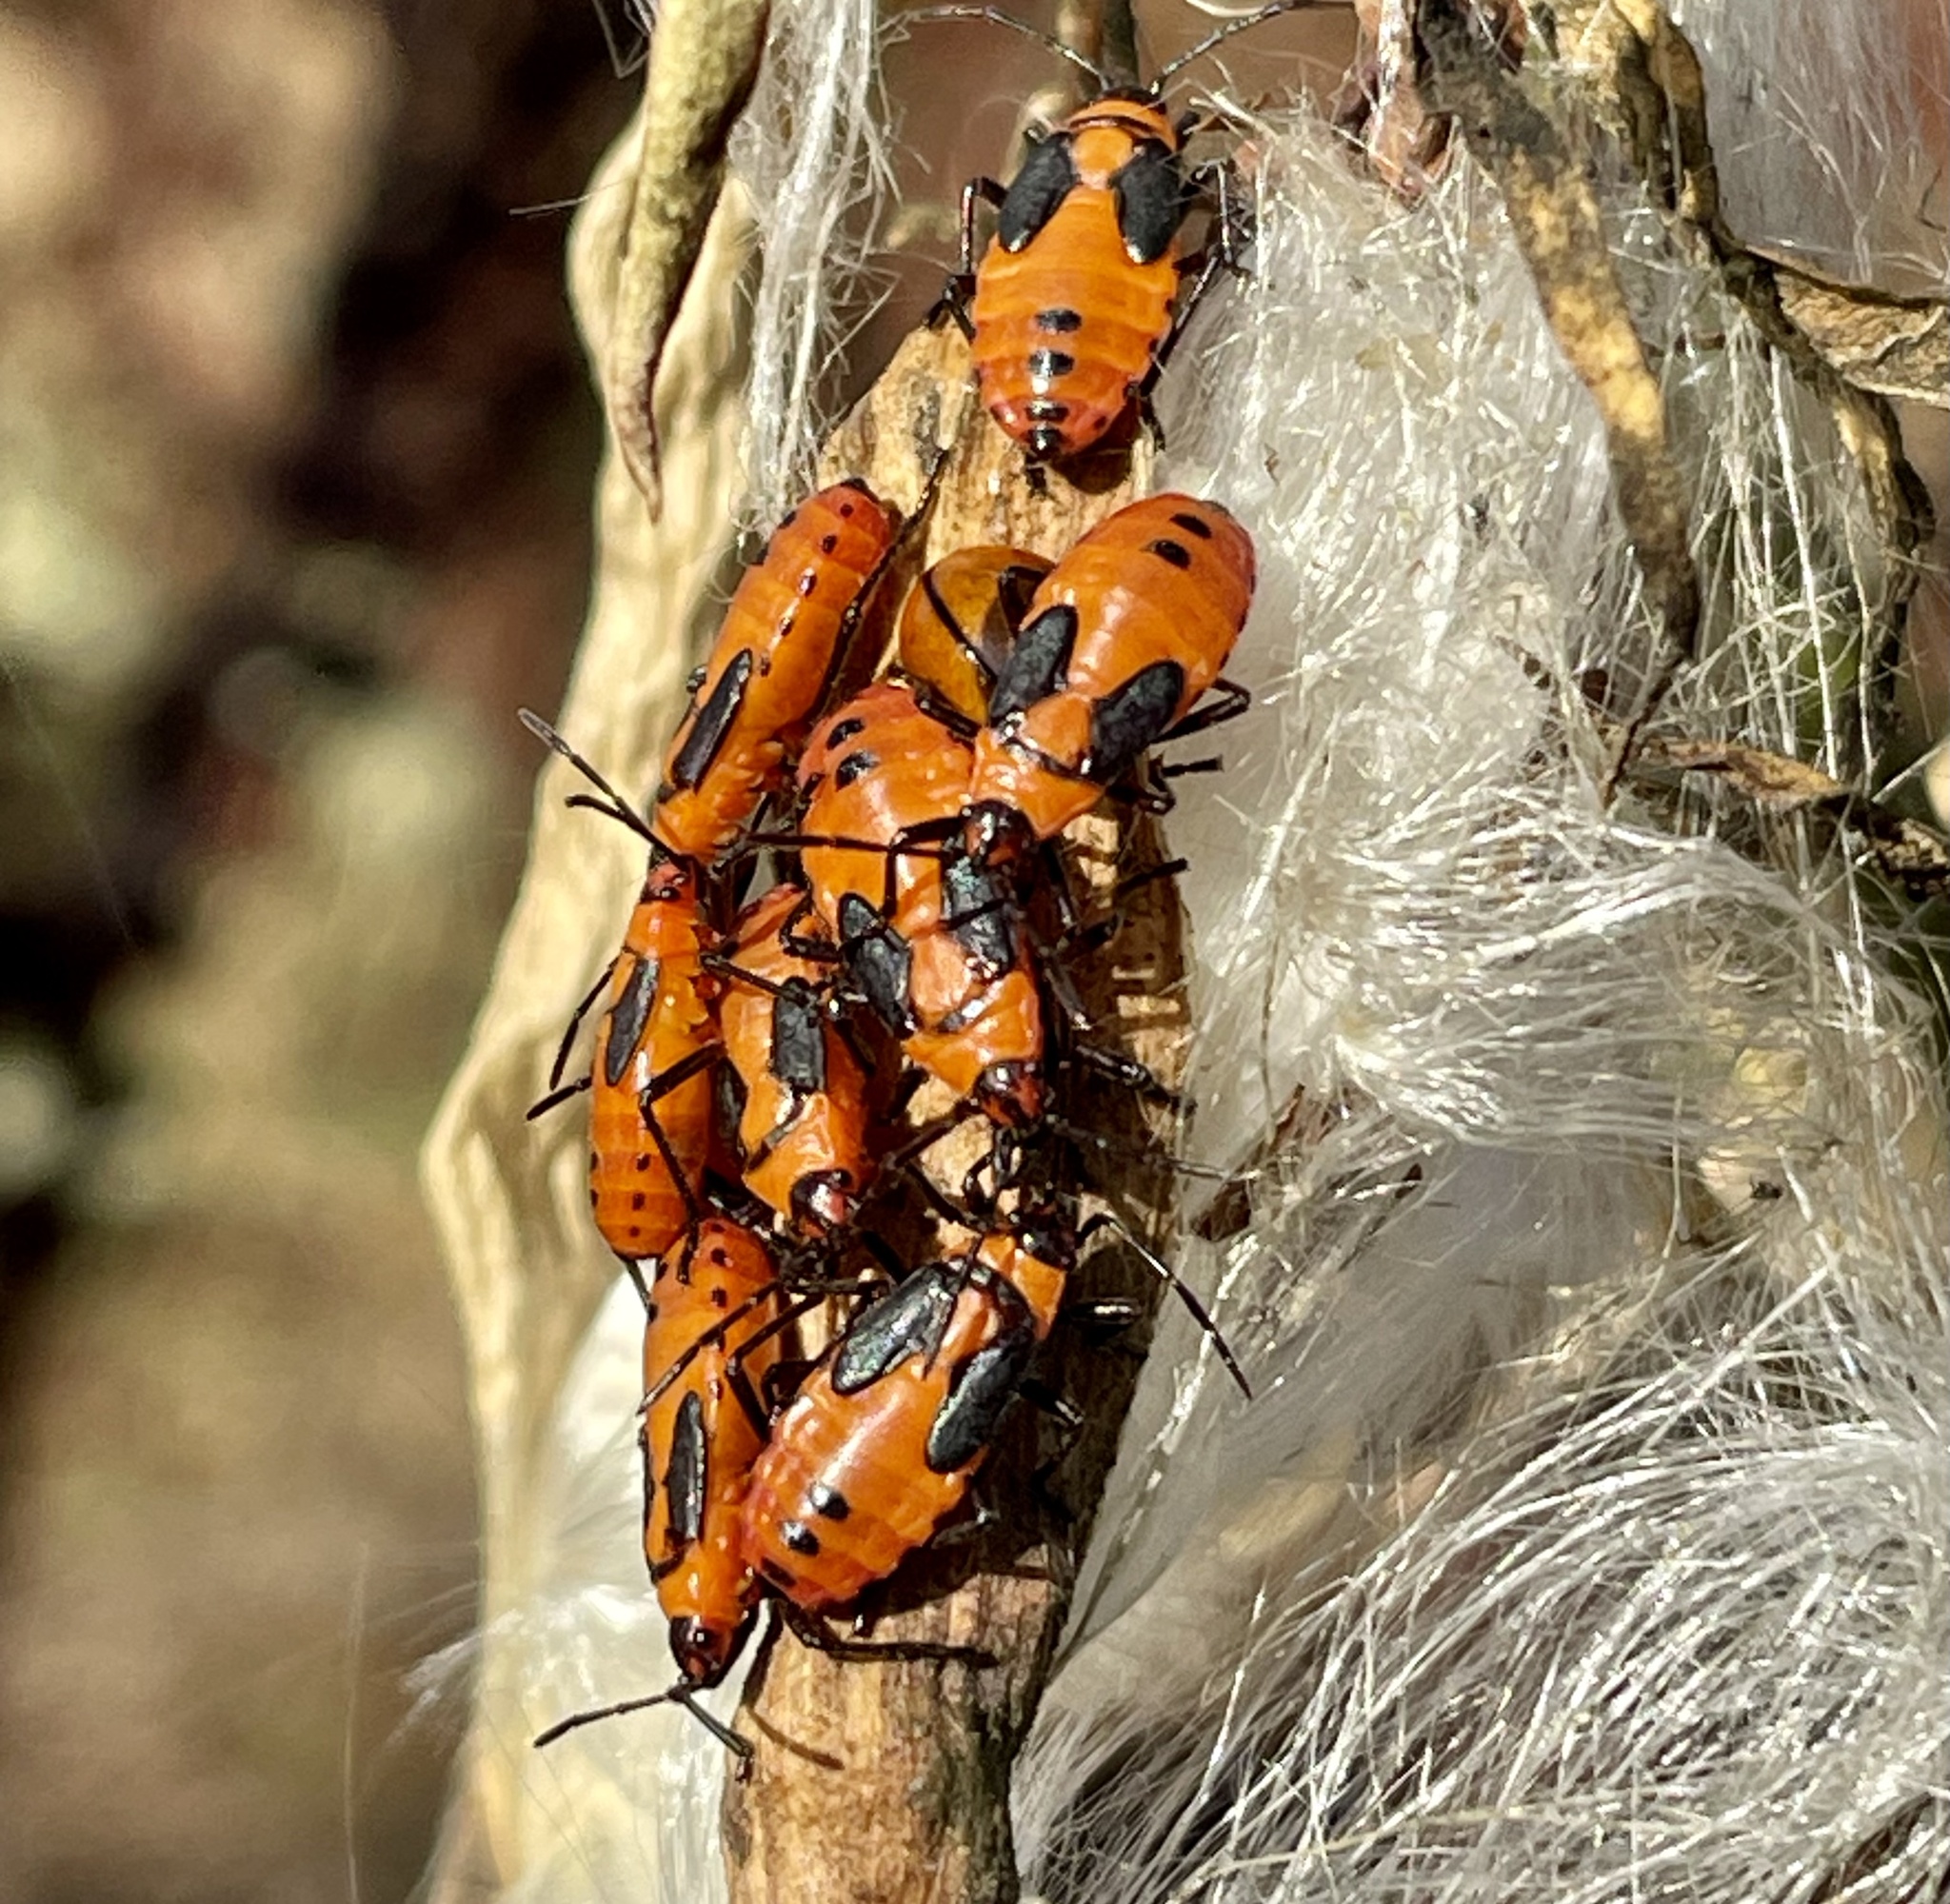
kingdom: Animalia
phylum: Arthropoda
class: Insecta
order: Hemiptera
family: Lygaeidae
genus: Oncopeltus
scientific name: Oncopeltus fasciatus
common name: Large milkweed bug
